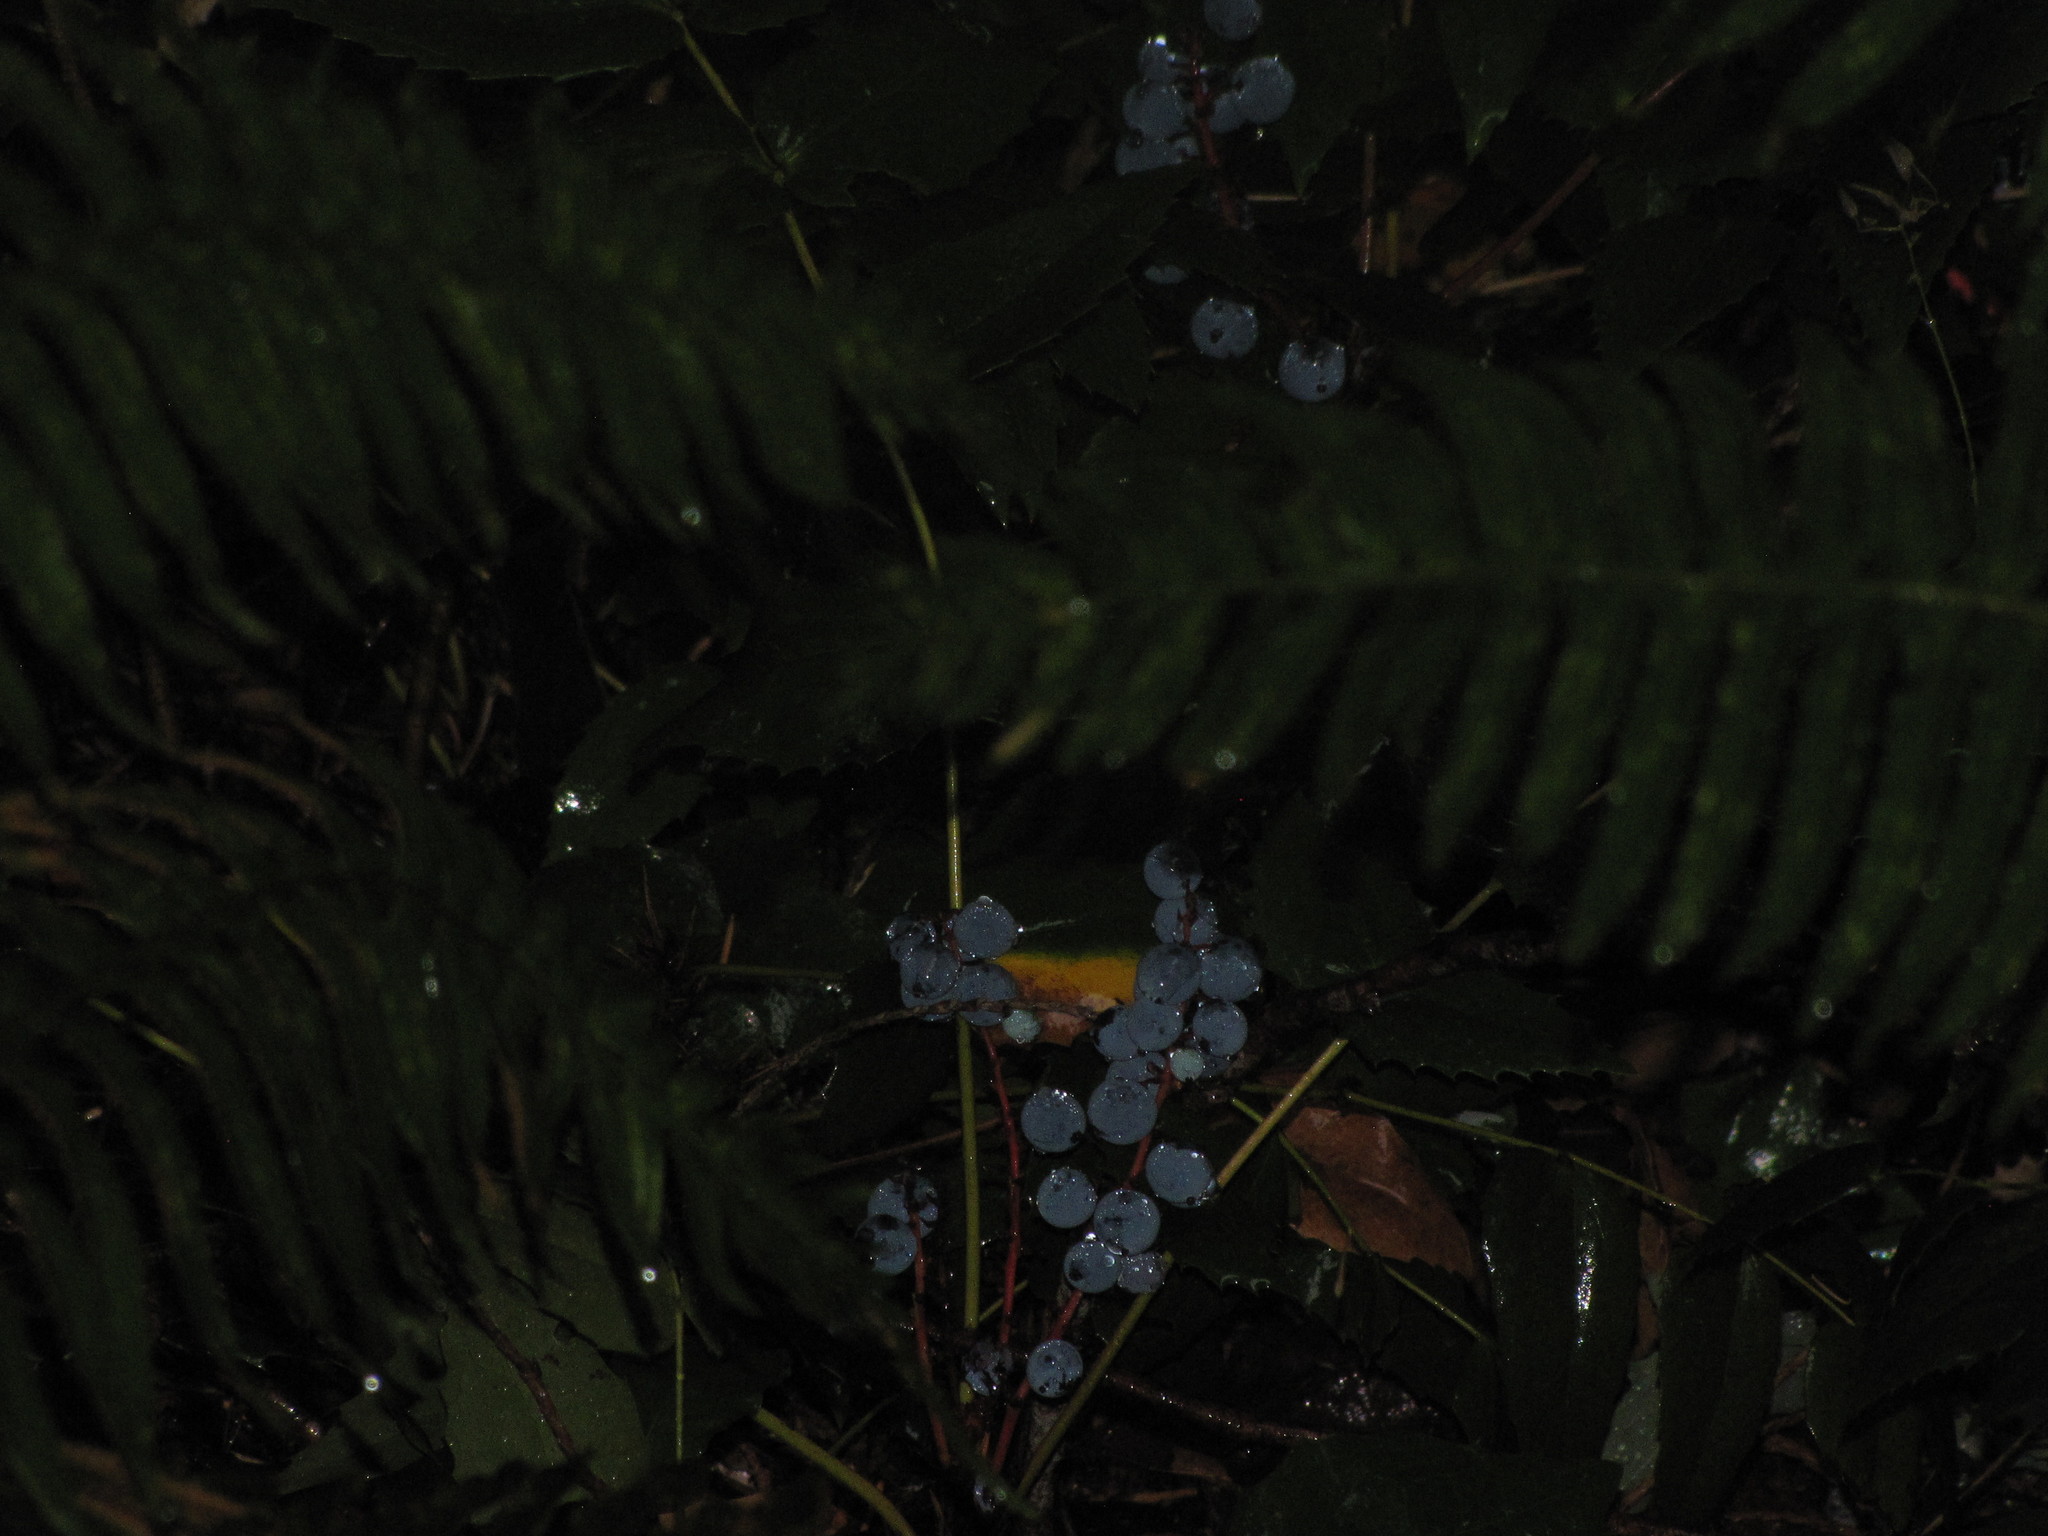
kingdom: Plantae
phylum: Tracheophyta
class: Magnoliopsida
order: Ranunculales
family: Berberidaceae
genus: Mahonia
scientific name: Mahonia nervosa
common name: Cascade oregon-grape
